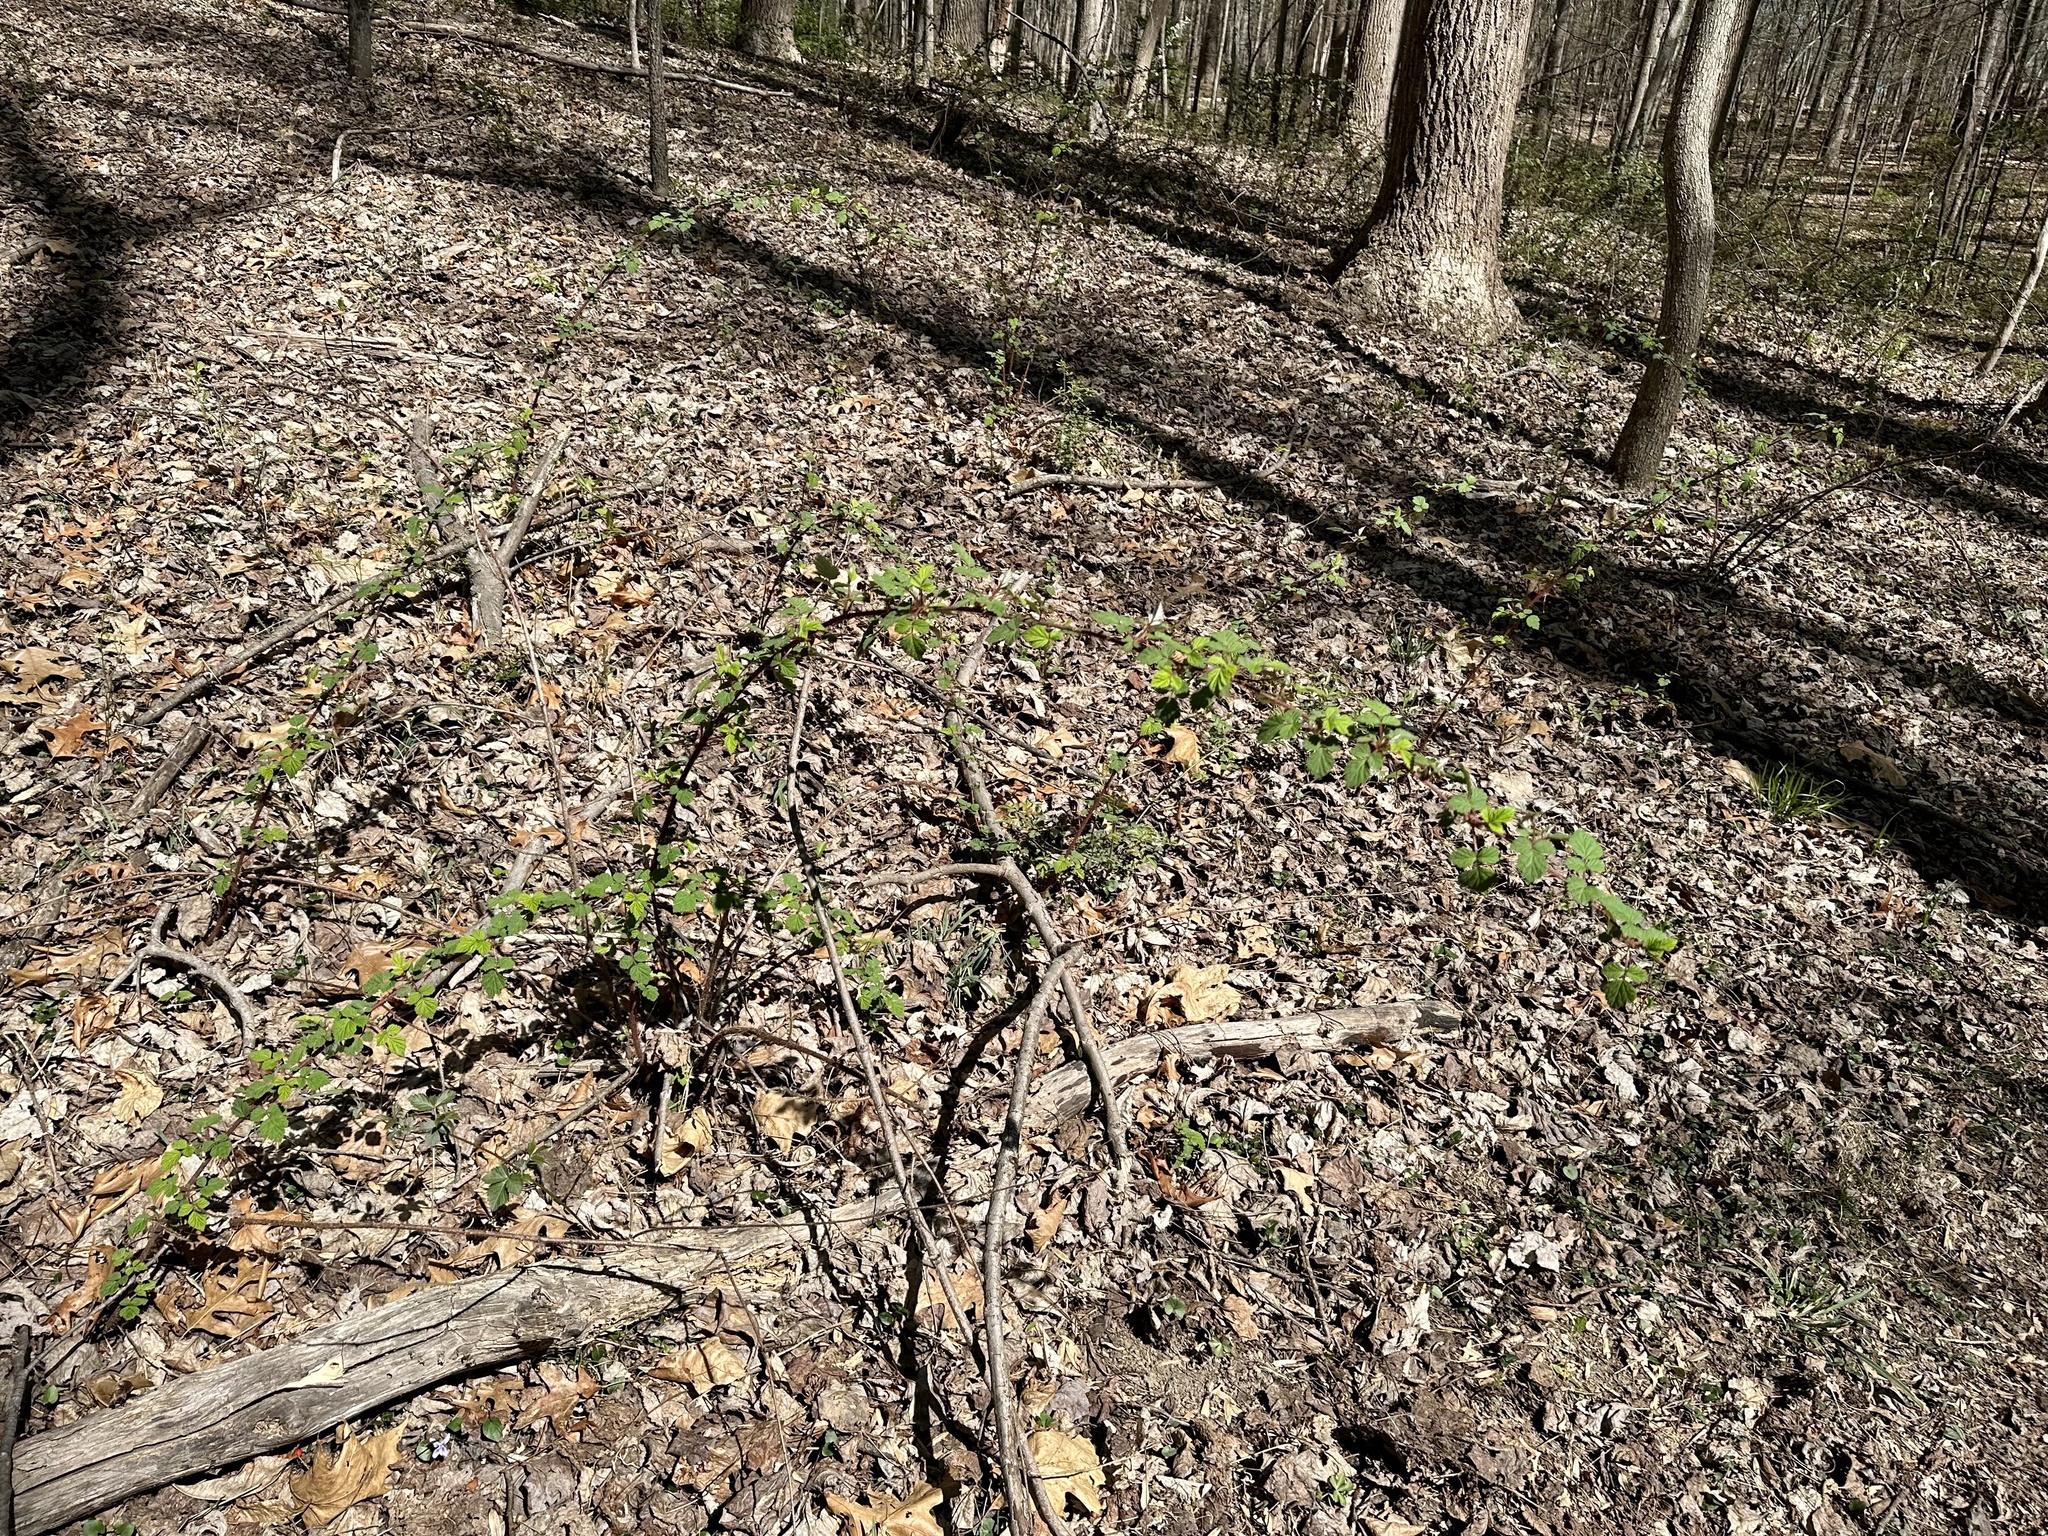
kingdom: Plantae
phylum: Tracheophyta
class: Magnoliopsida
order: Rosales
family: Rosaceae
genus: Rubus
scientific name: Rubus phoenicolasius
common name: Japanese wineberry
